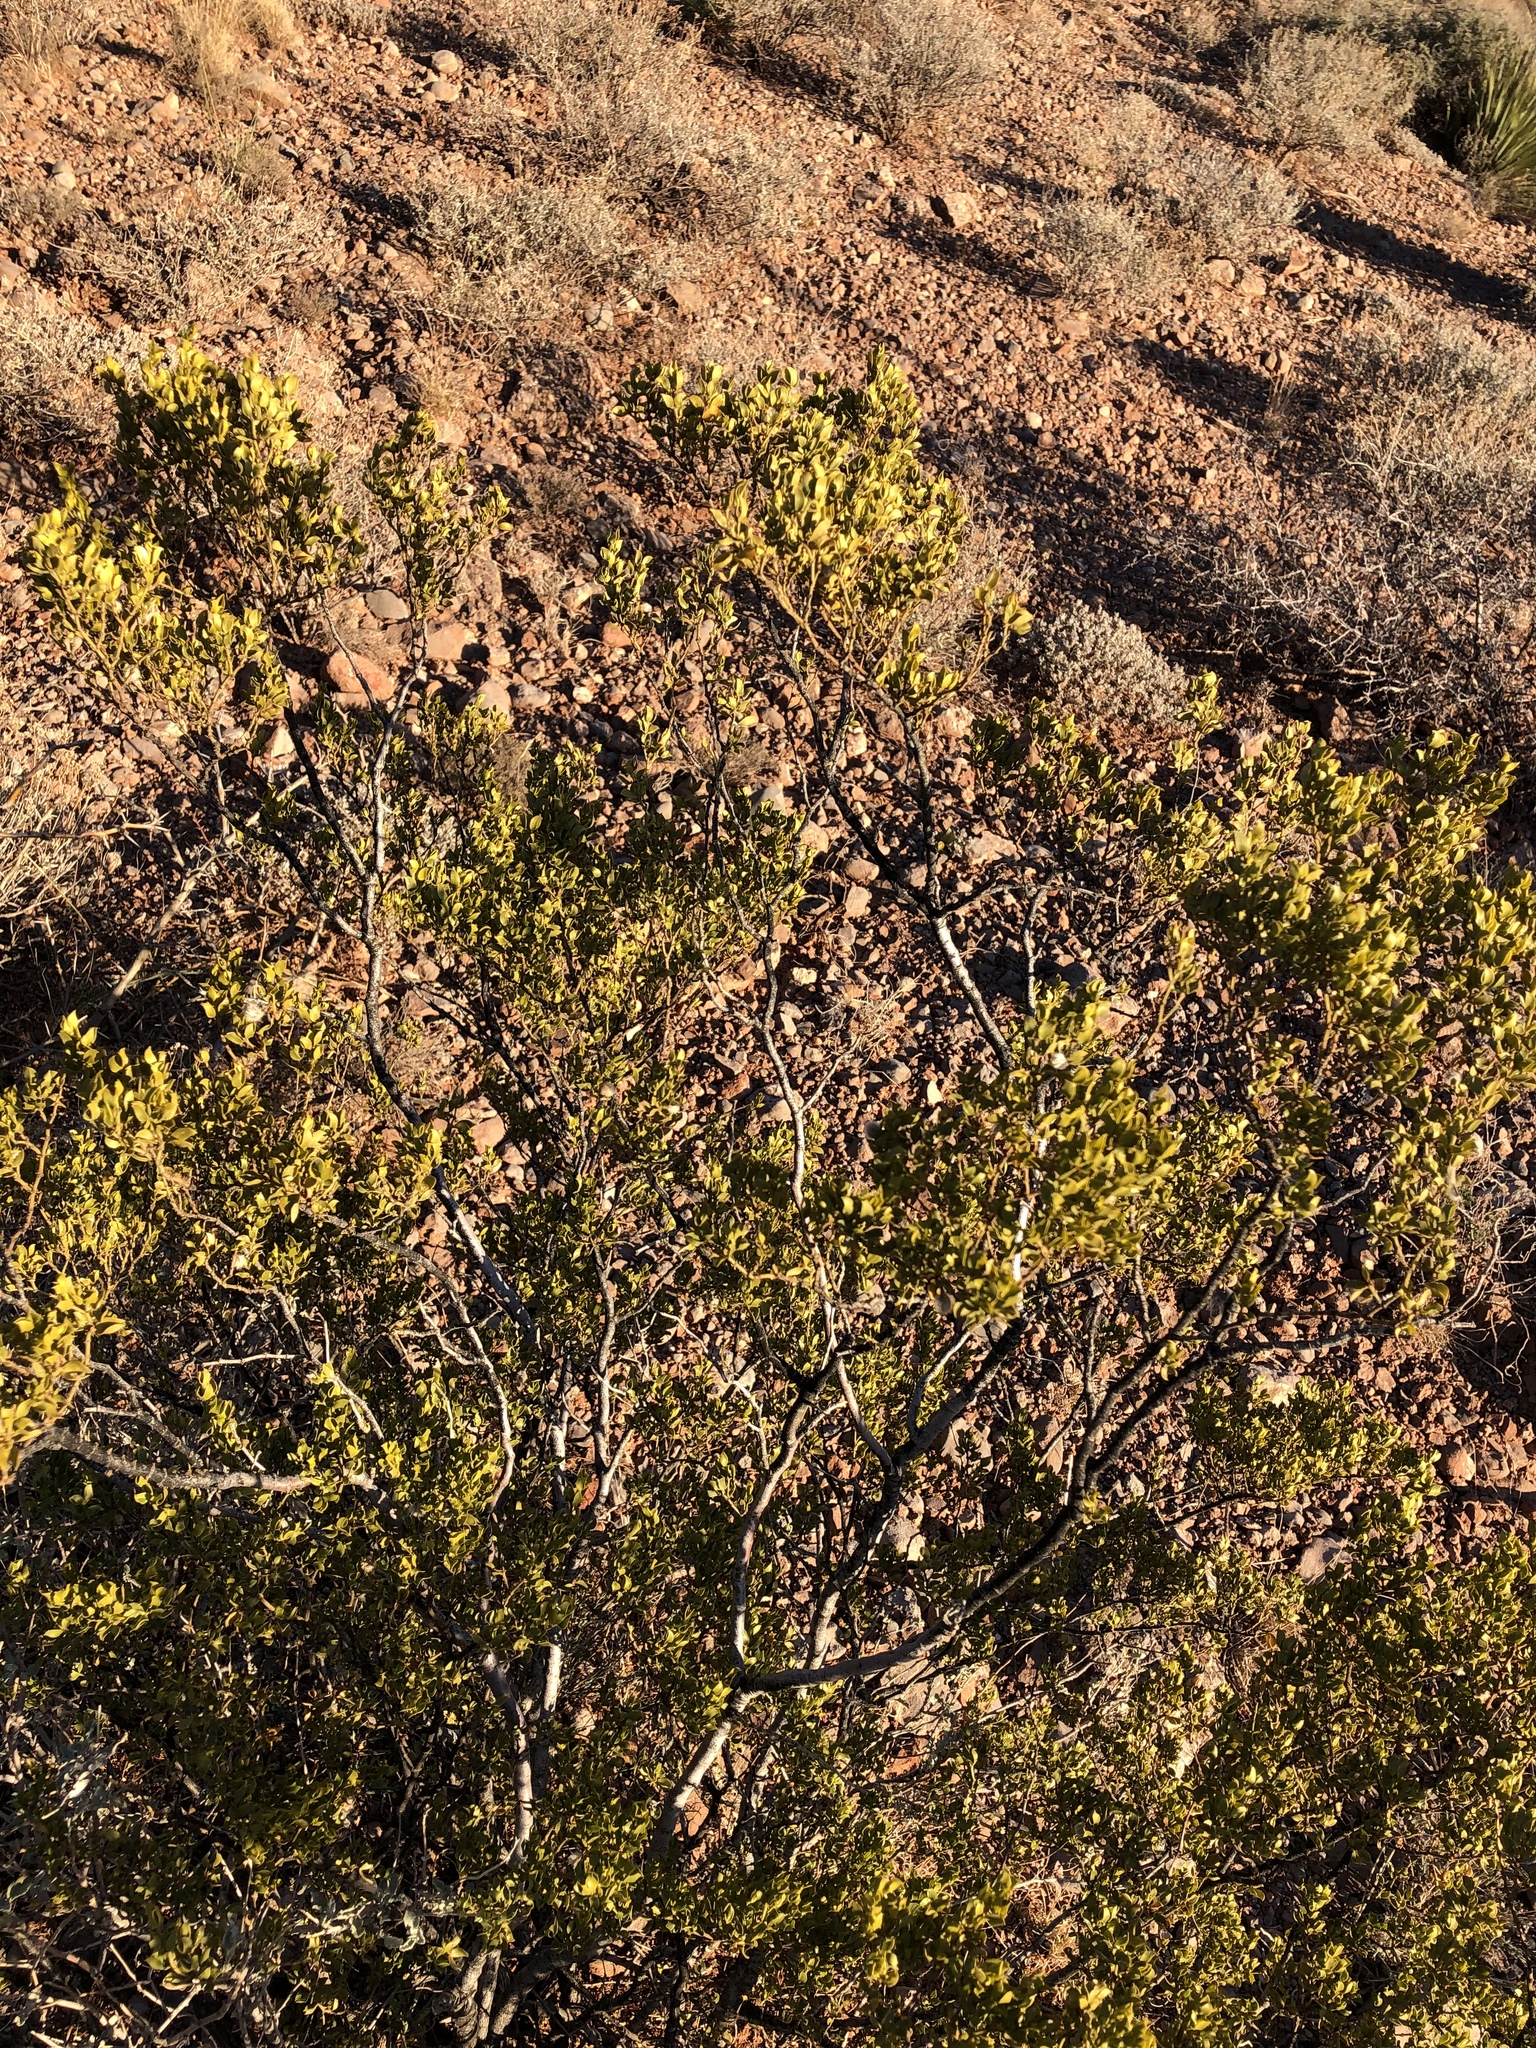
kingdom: Plantae
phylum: Tracheophyta
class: Magnoliopsida
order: Zygophyllales
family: Zygophyllaceae
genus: Larrea
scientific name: Larrea tridentata
